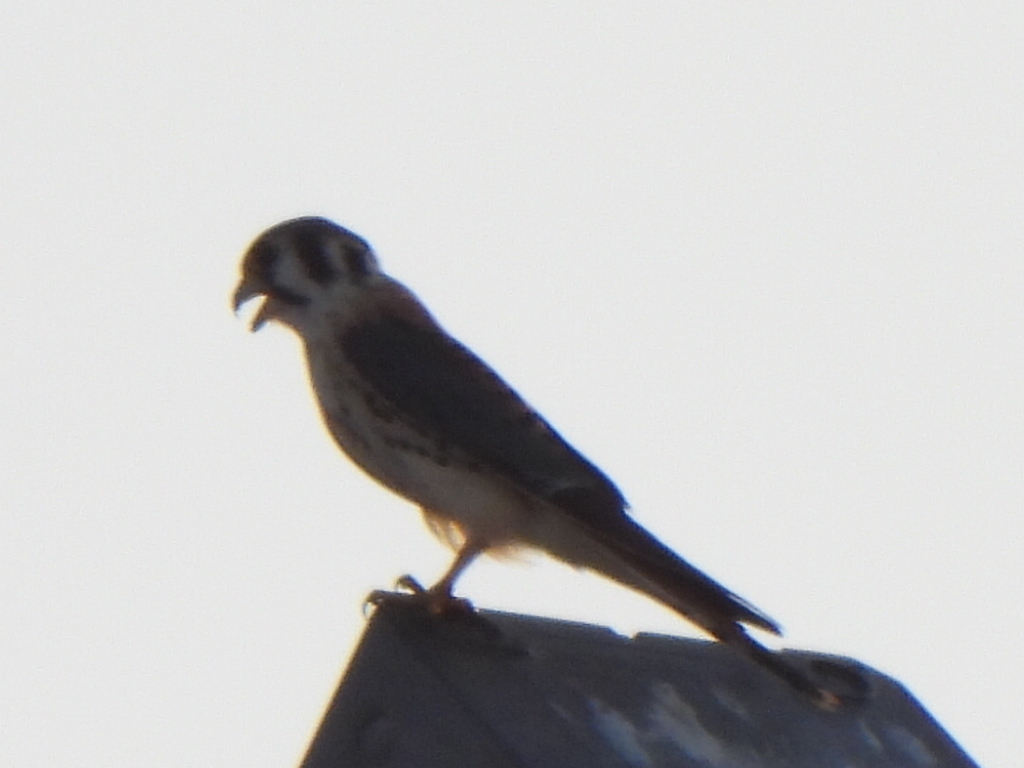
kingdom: Animalia
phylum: Chordata
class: Aves
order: Falconiformes
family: Falconidae
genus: Falco
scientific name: Falco sparverius
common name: American kestrel
